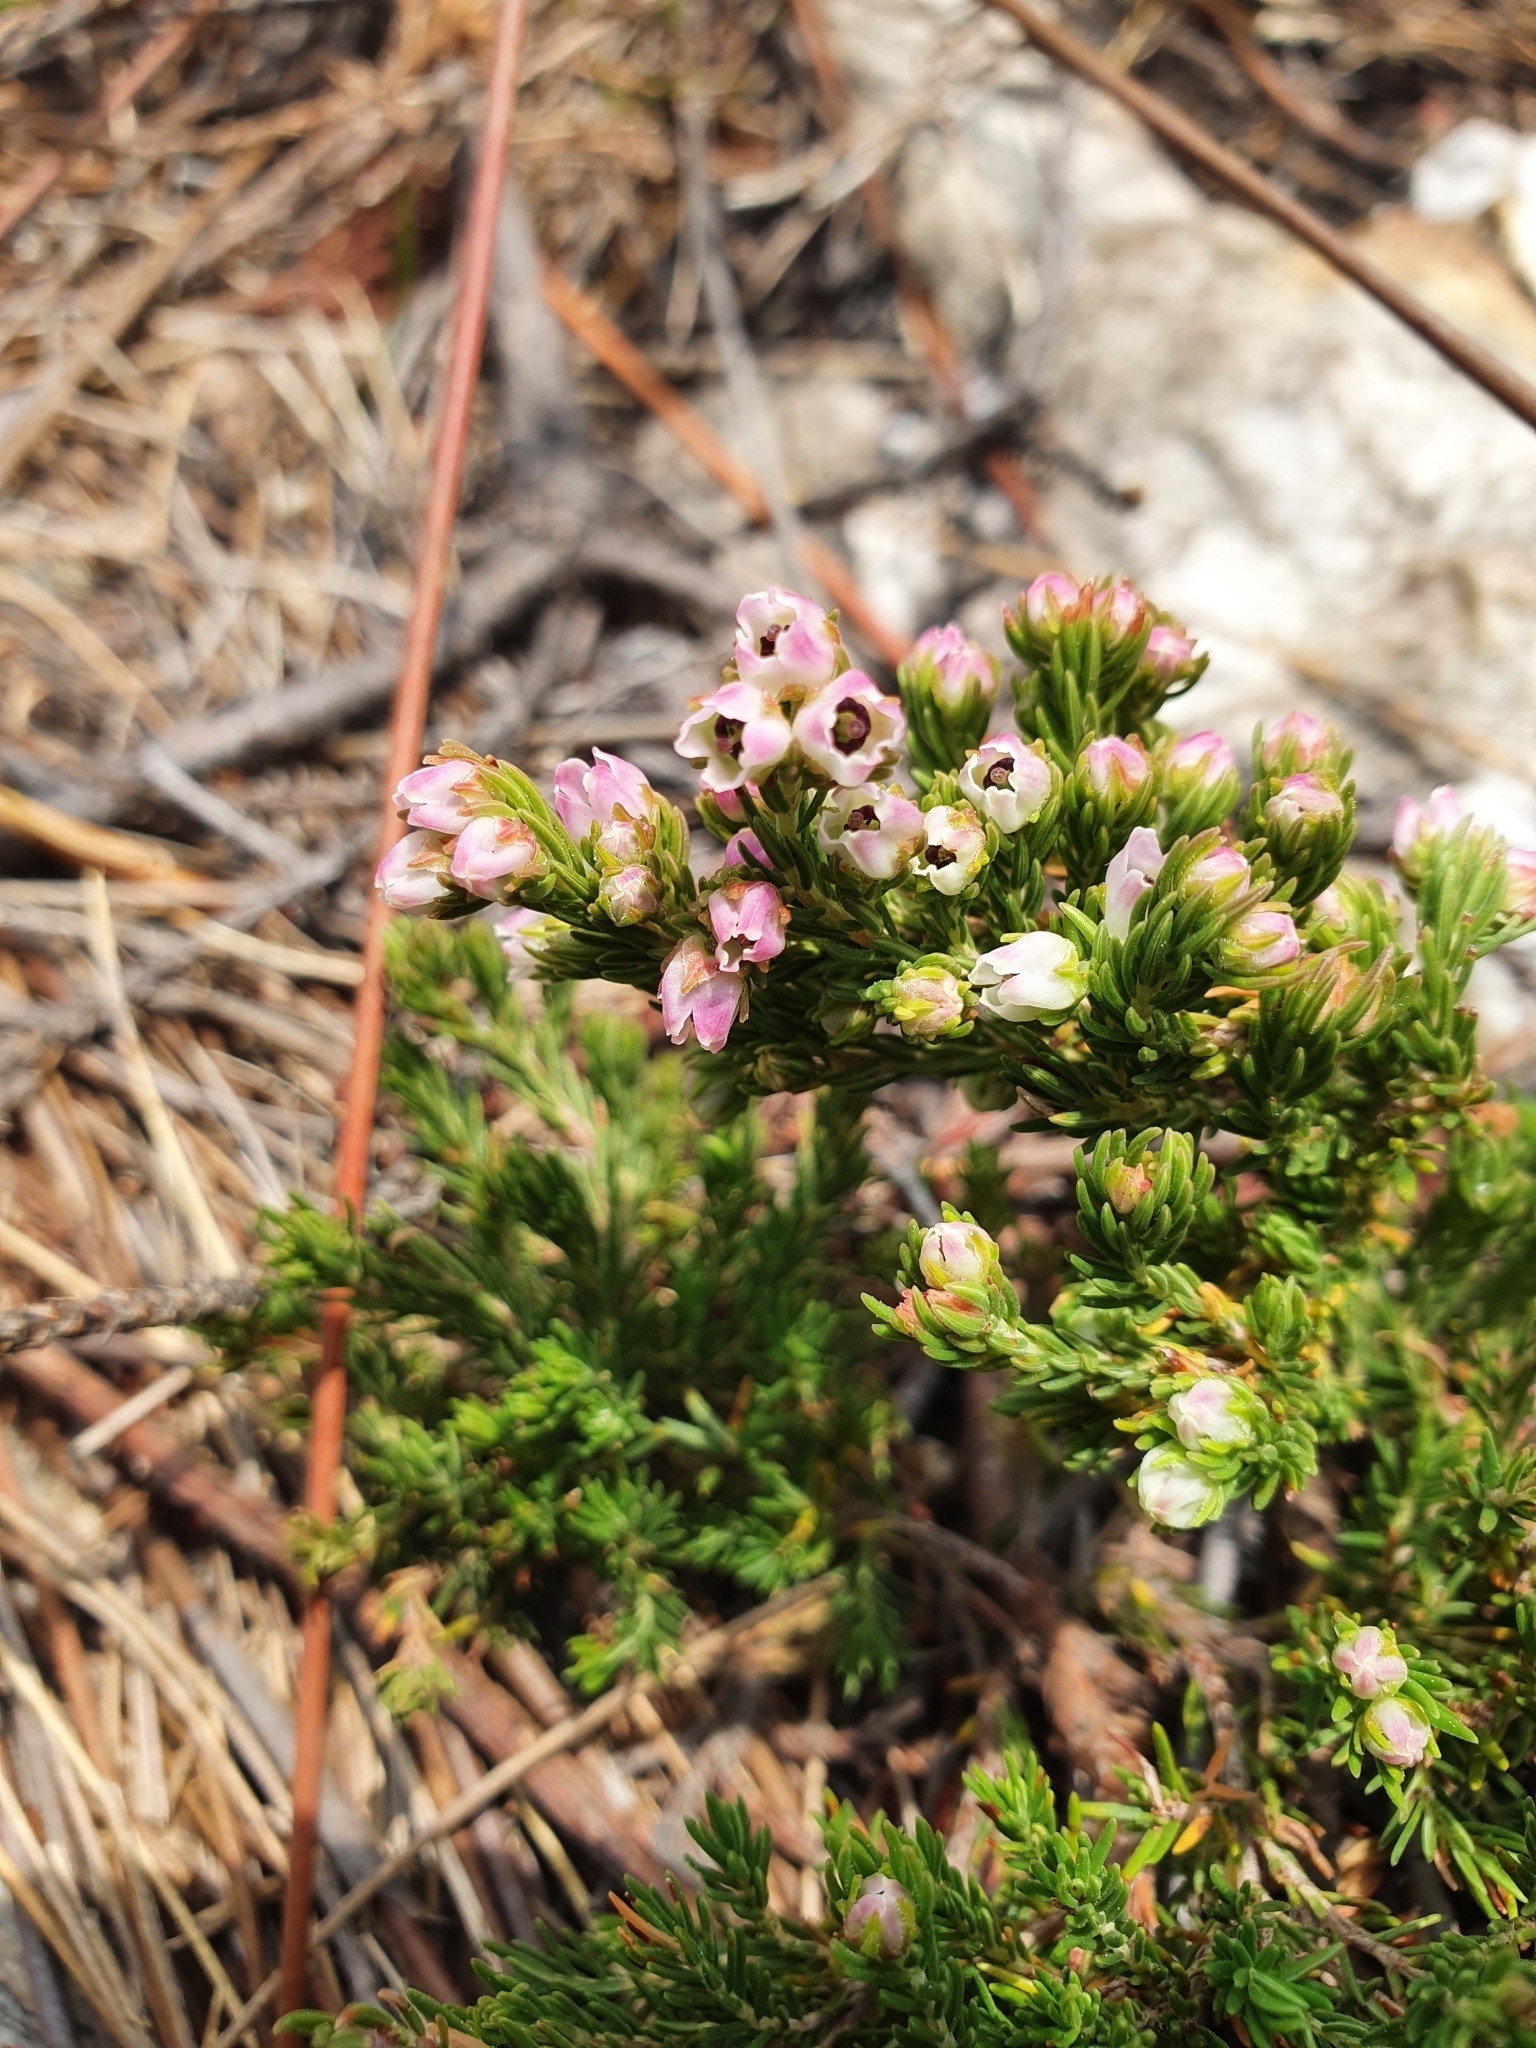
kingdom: Plantae
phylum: Tracheophyta
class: Magnoliopsida
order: Ericales
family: Ericaceae
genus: Erica
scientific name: Erica condensata
